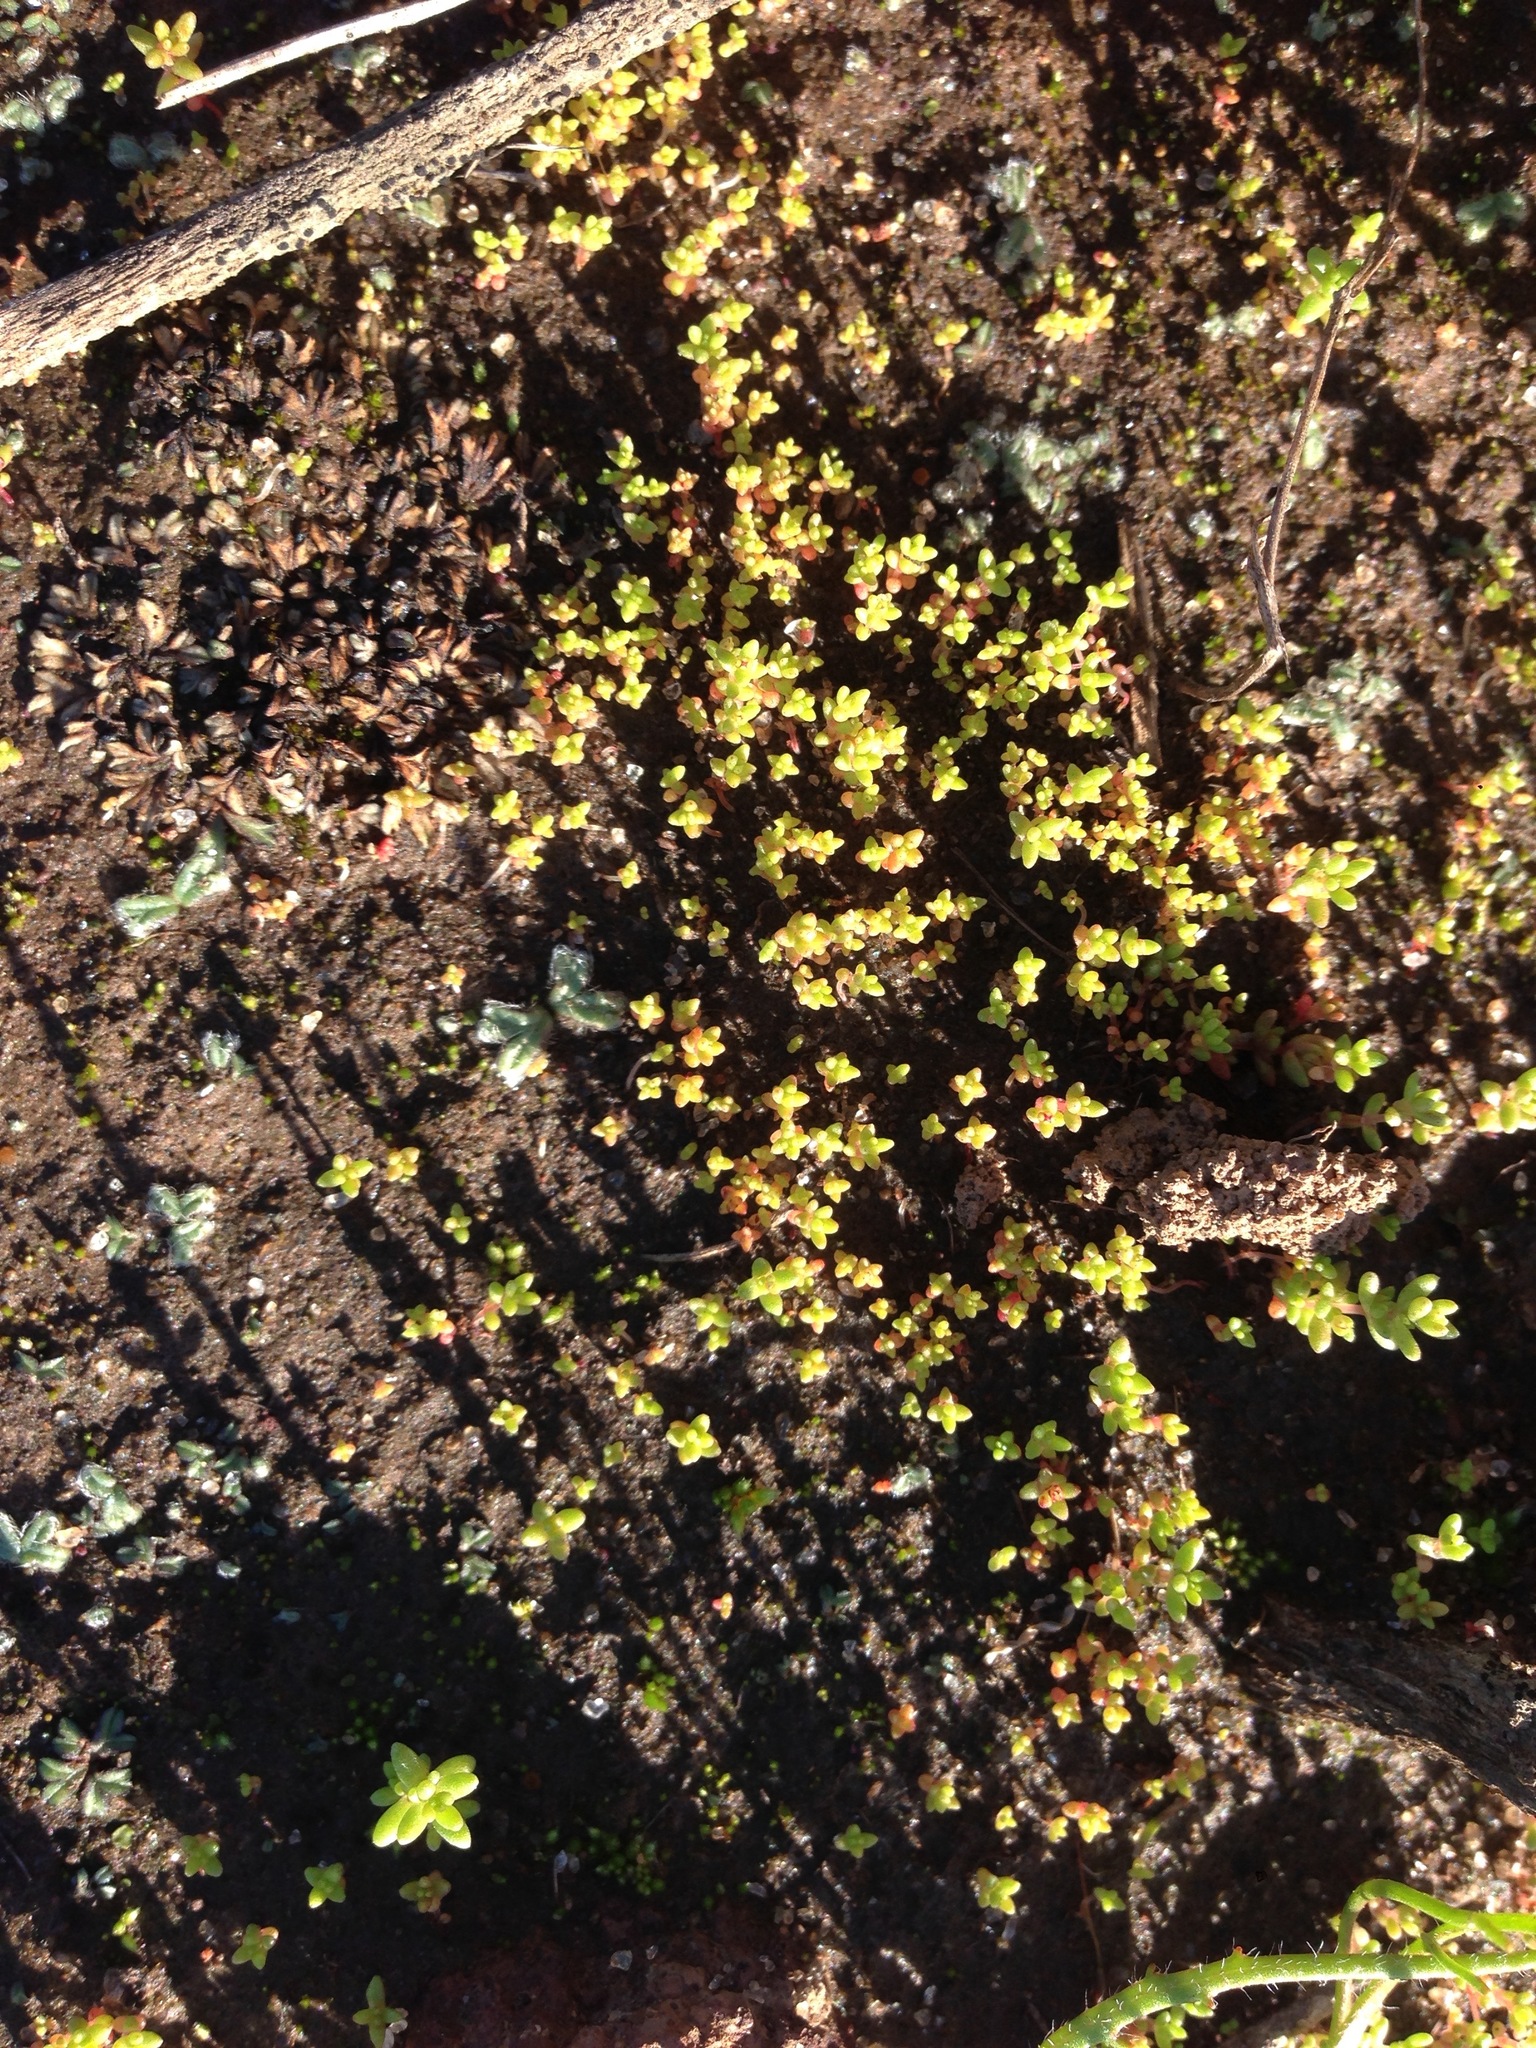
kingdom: Plantae
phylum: Tracheophyta
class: Magnoliopsida
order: Saxifragales
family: Crassulaceae
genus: Crassula
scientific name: Crassula connata
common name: Erect pygmyweed
